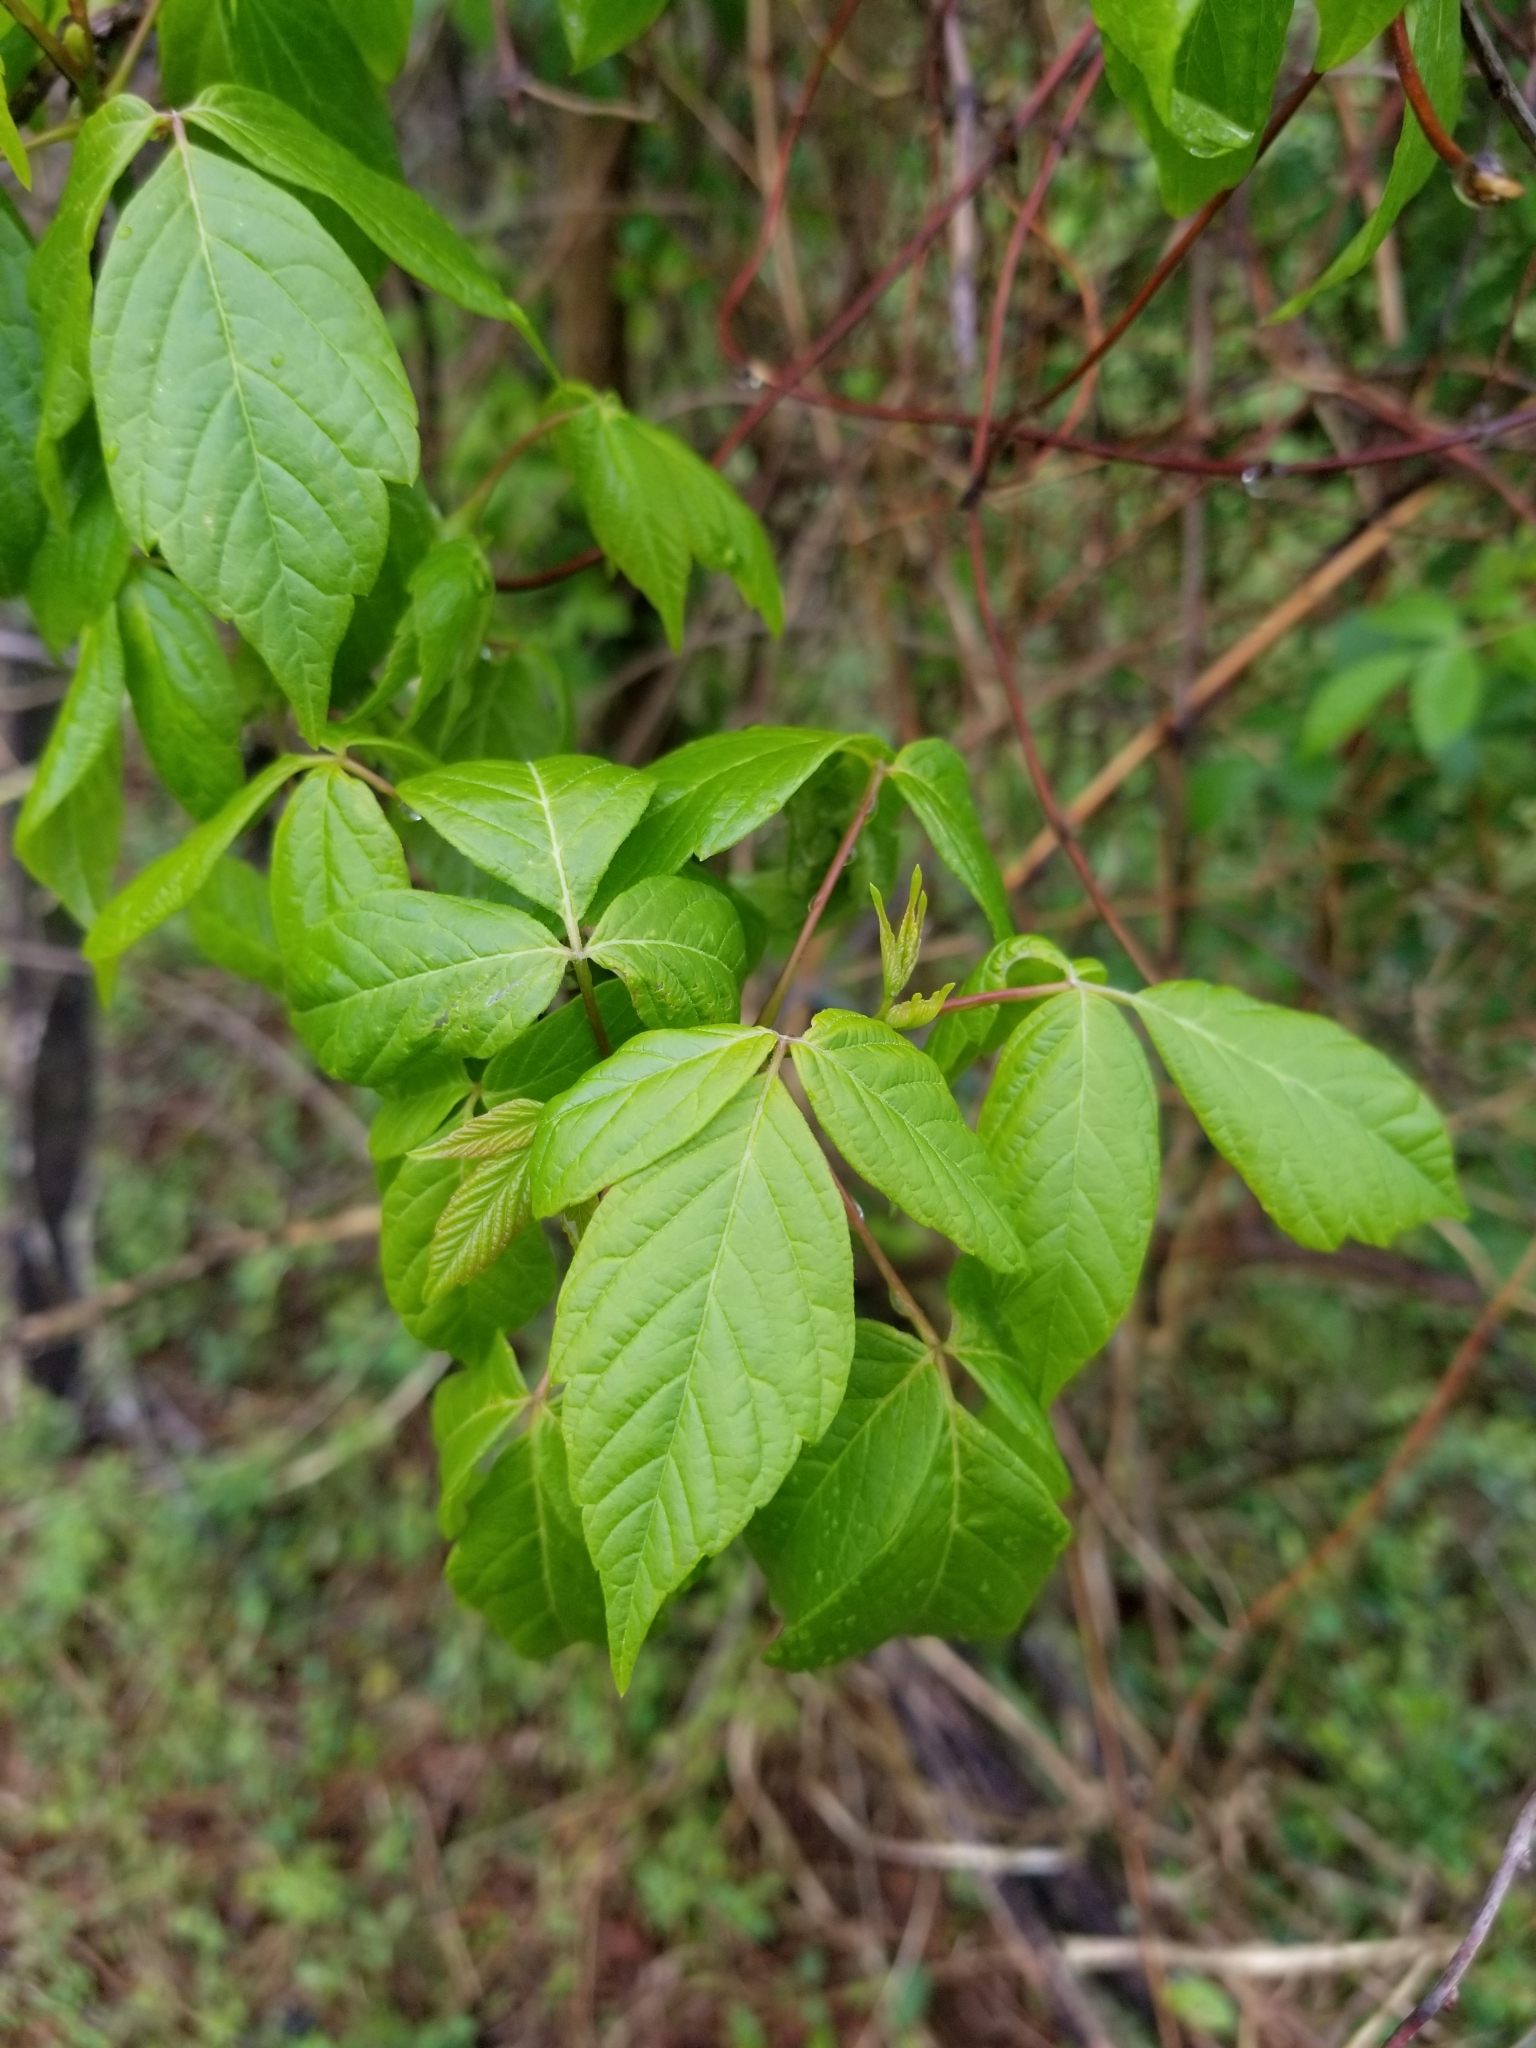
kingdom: Plantae
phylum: Tracheophyta
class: Magnoliopsida
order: Sapindales
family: Sapindaceae
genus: Acer
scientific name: Acer negundo
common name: Ashleaf maple
